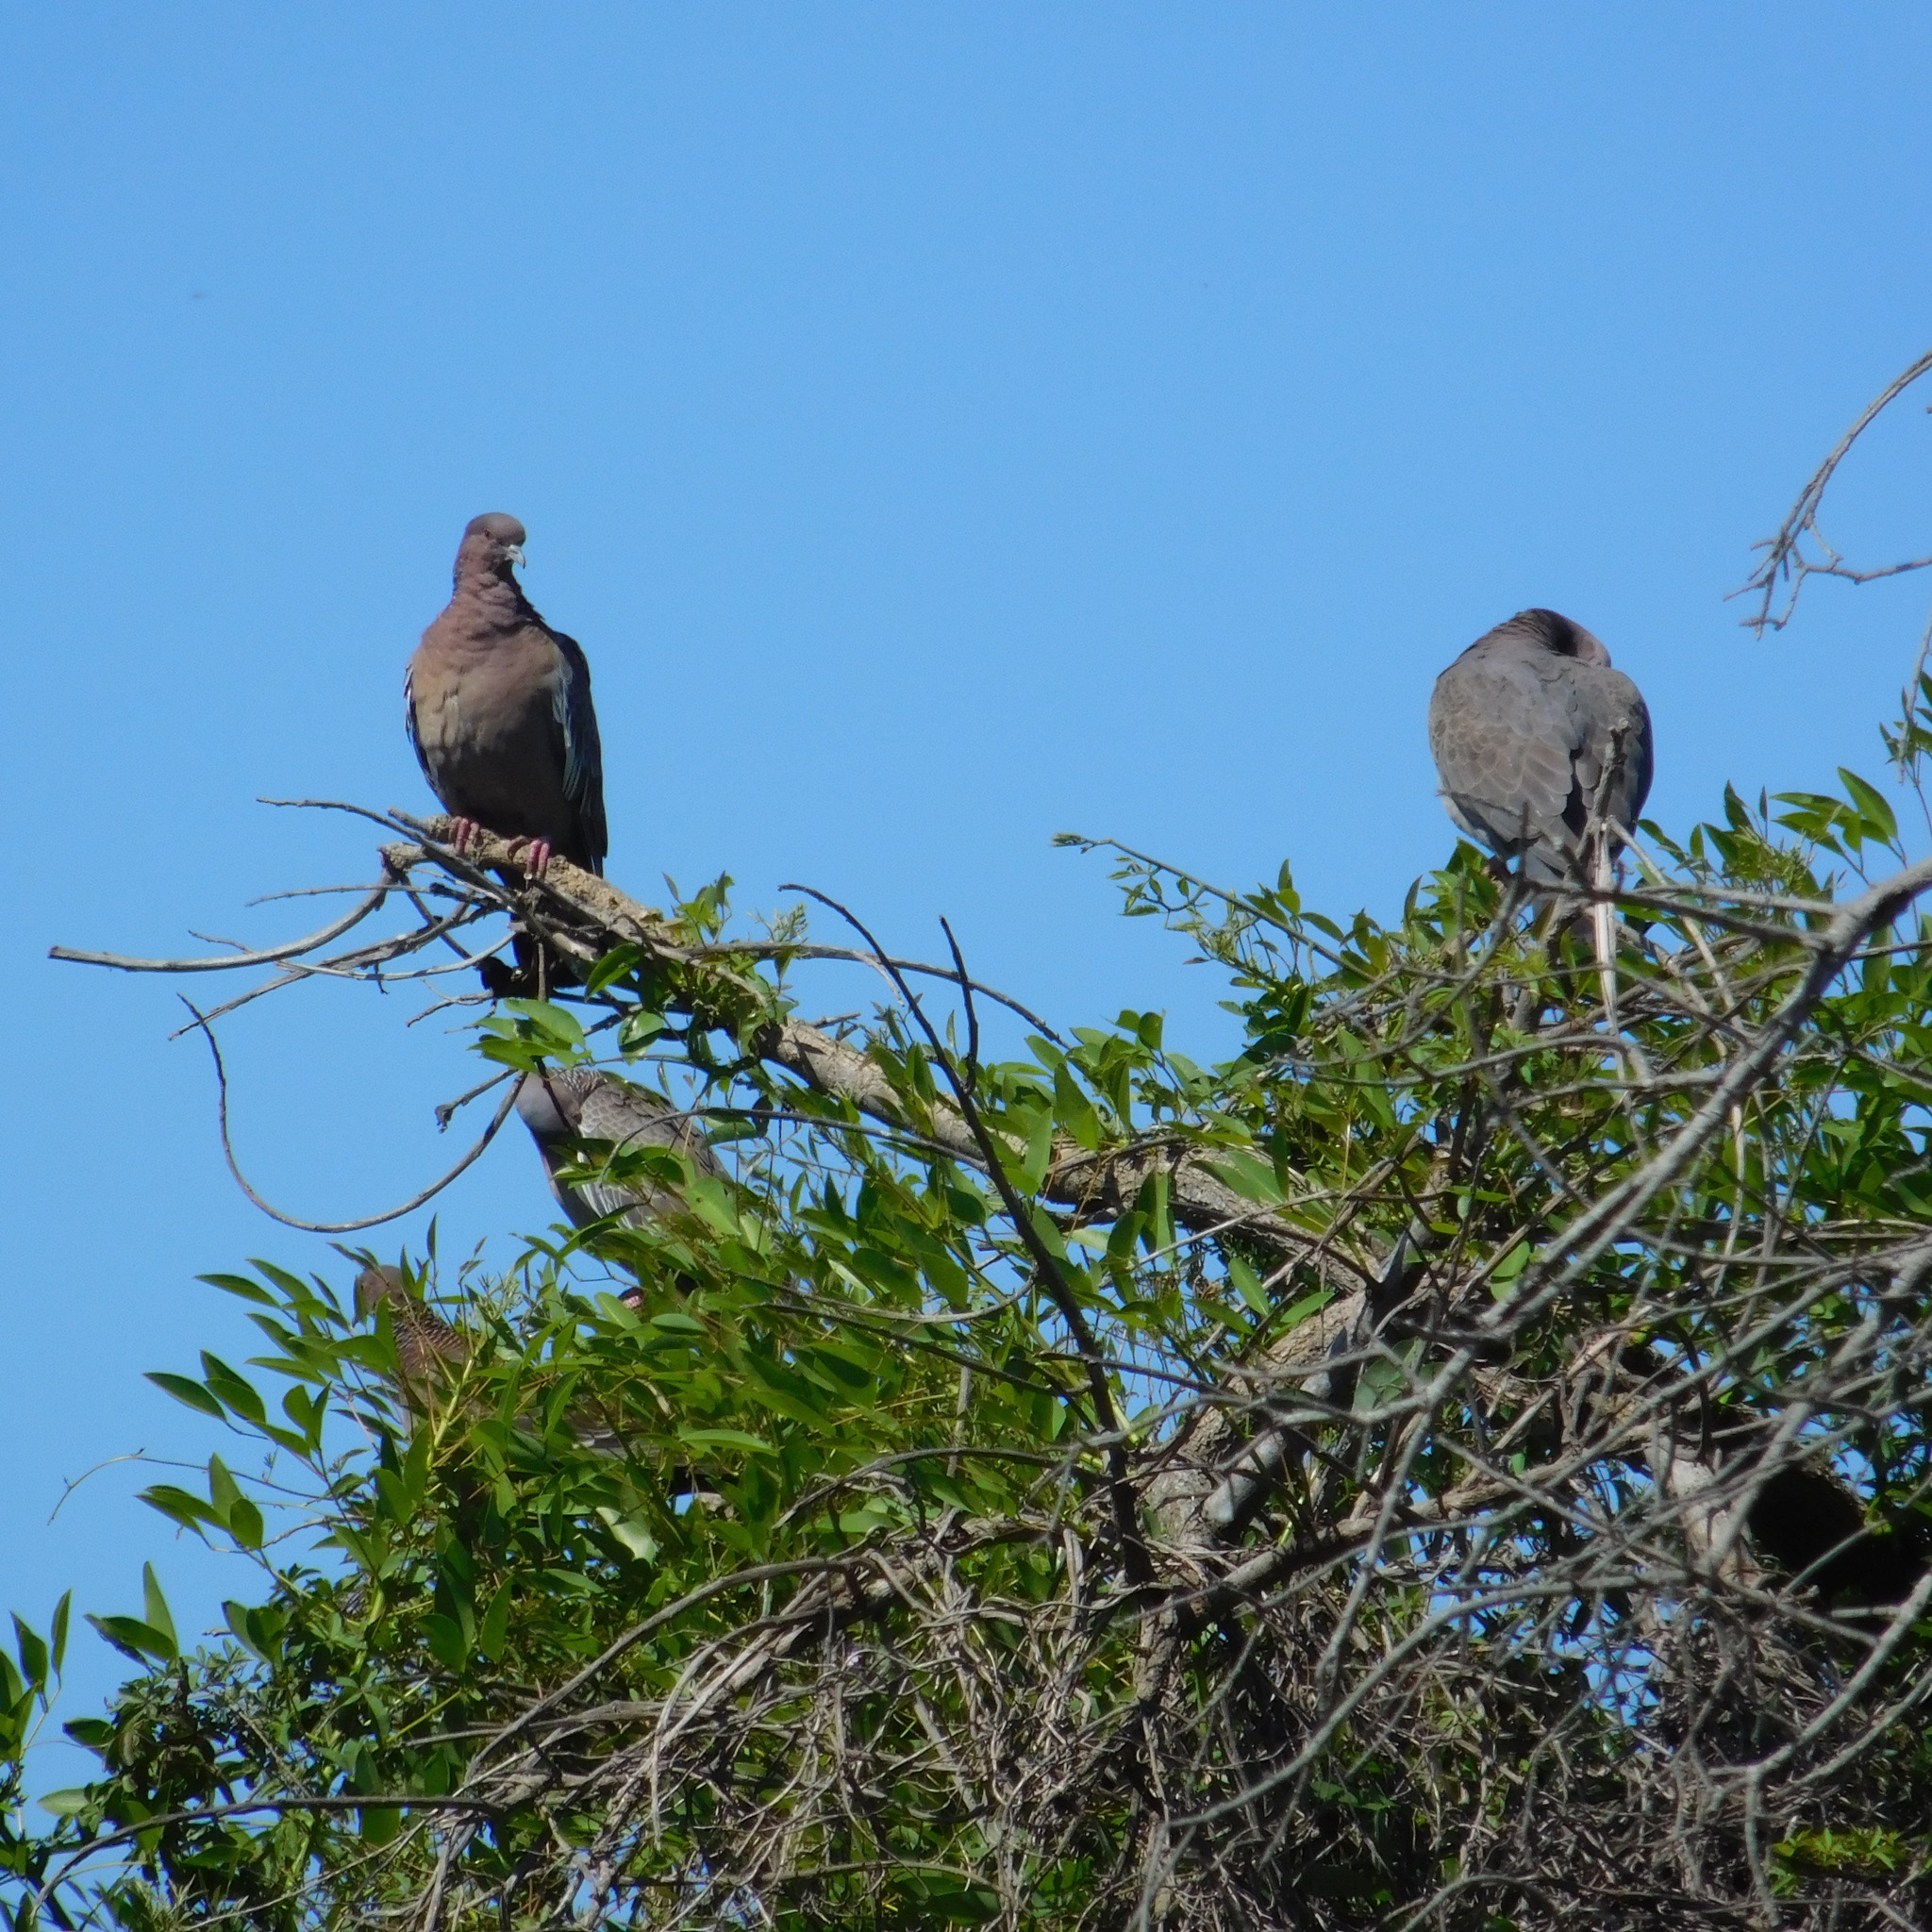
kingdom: Animalia
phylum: Chordata
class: Aves
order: Columbiformes
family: Columbidae
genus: Patagioenas
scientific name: Patagioenas picazuro
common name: Picazuro pigeon
